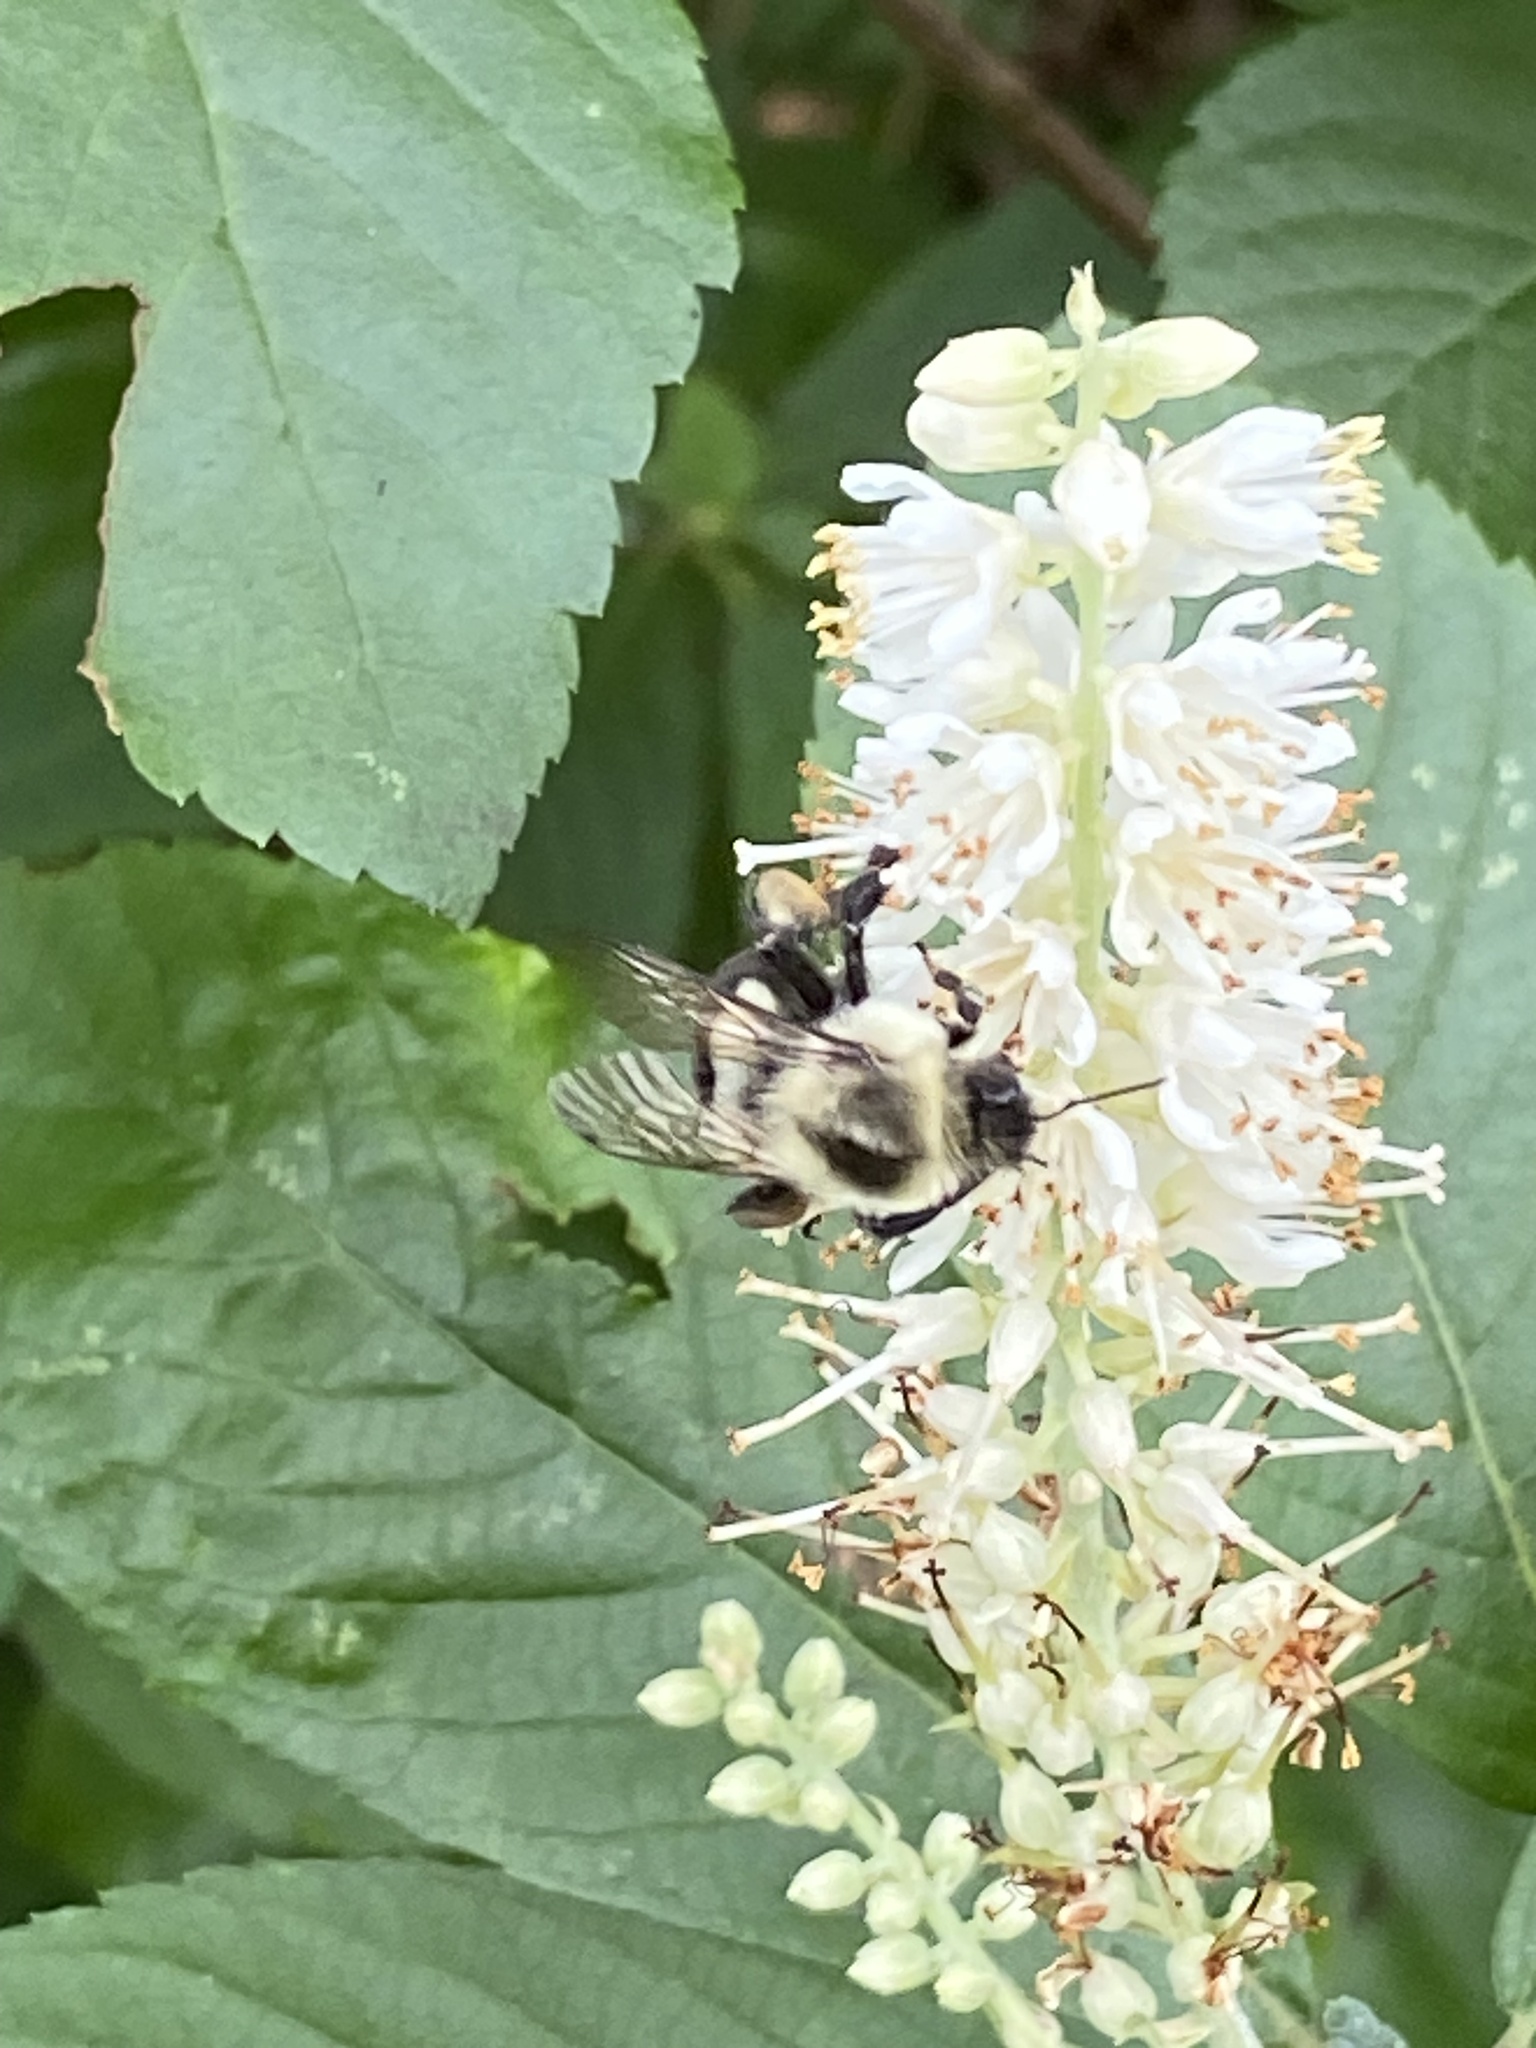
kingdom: Animalia
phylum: Arthropoda
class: Insecta
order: Hymenoptera
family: Apidae
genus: Bombus
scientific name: Bombus impatiens
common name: Common eastern bumble bee
